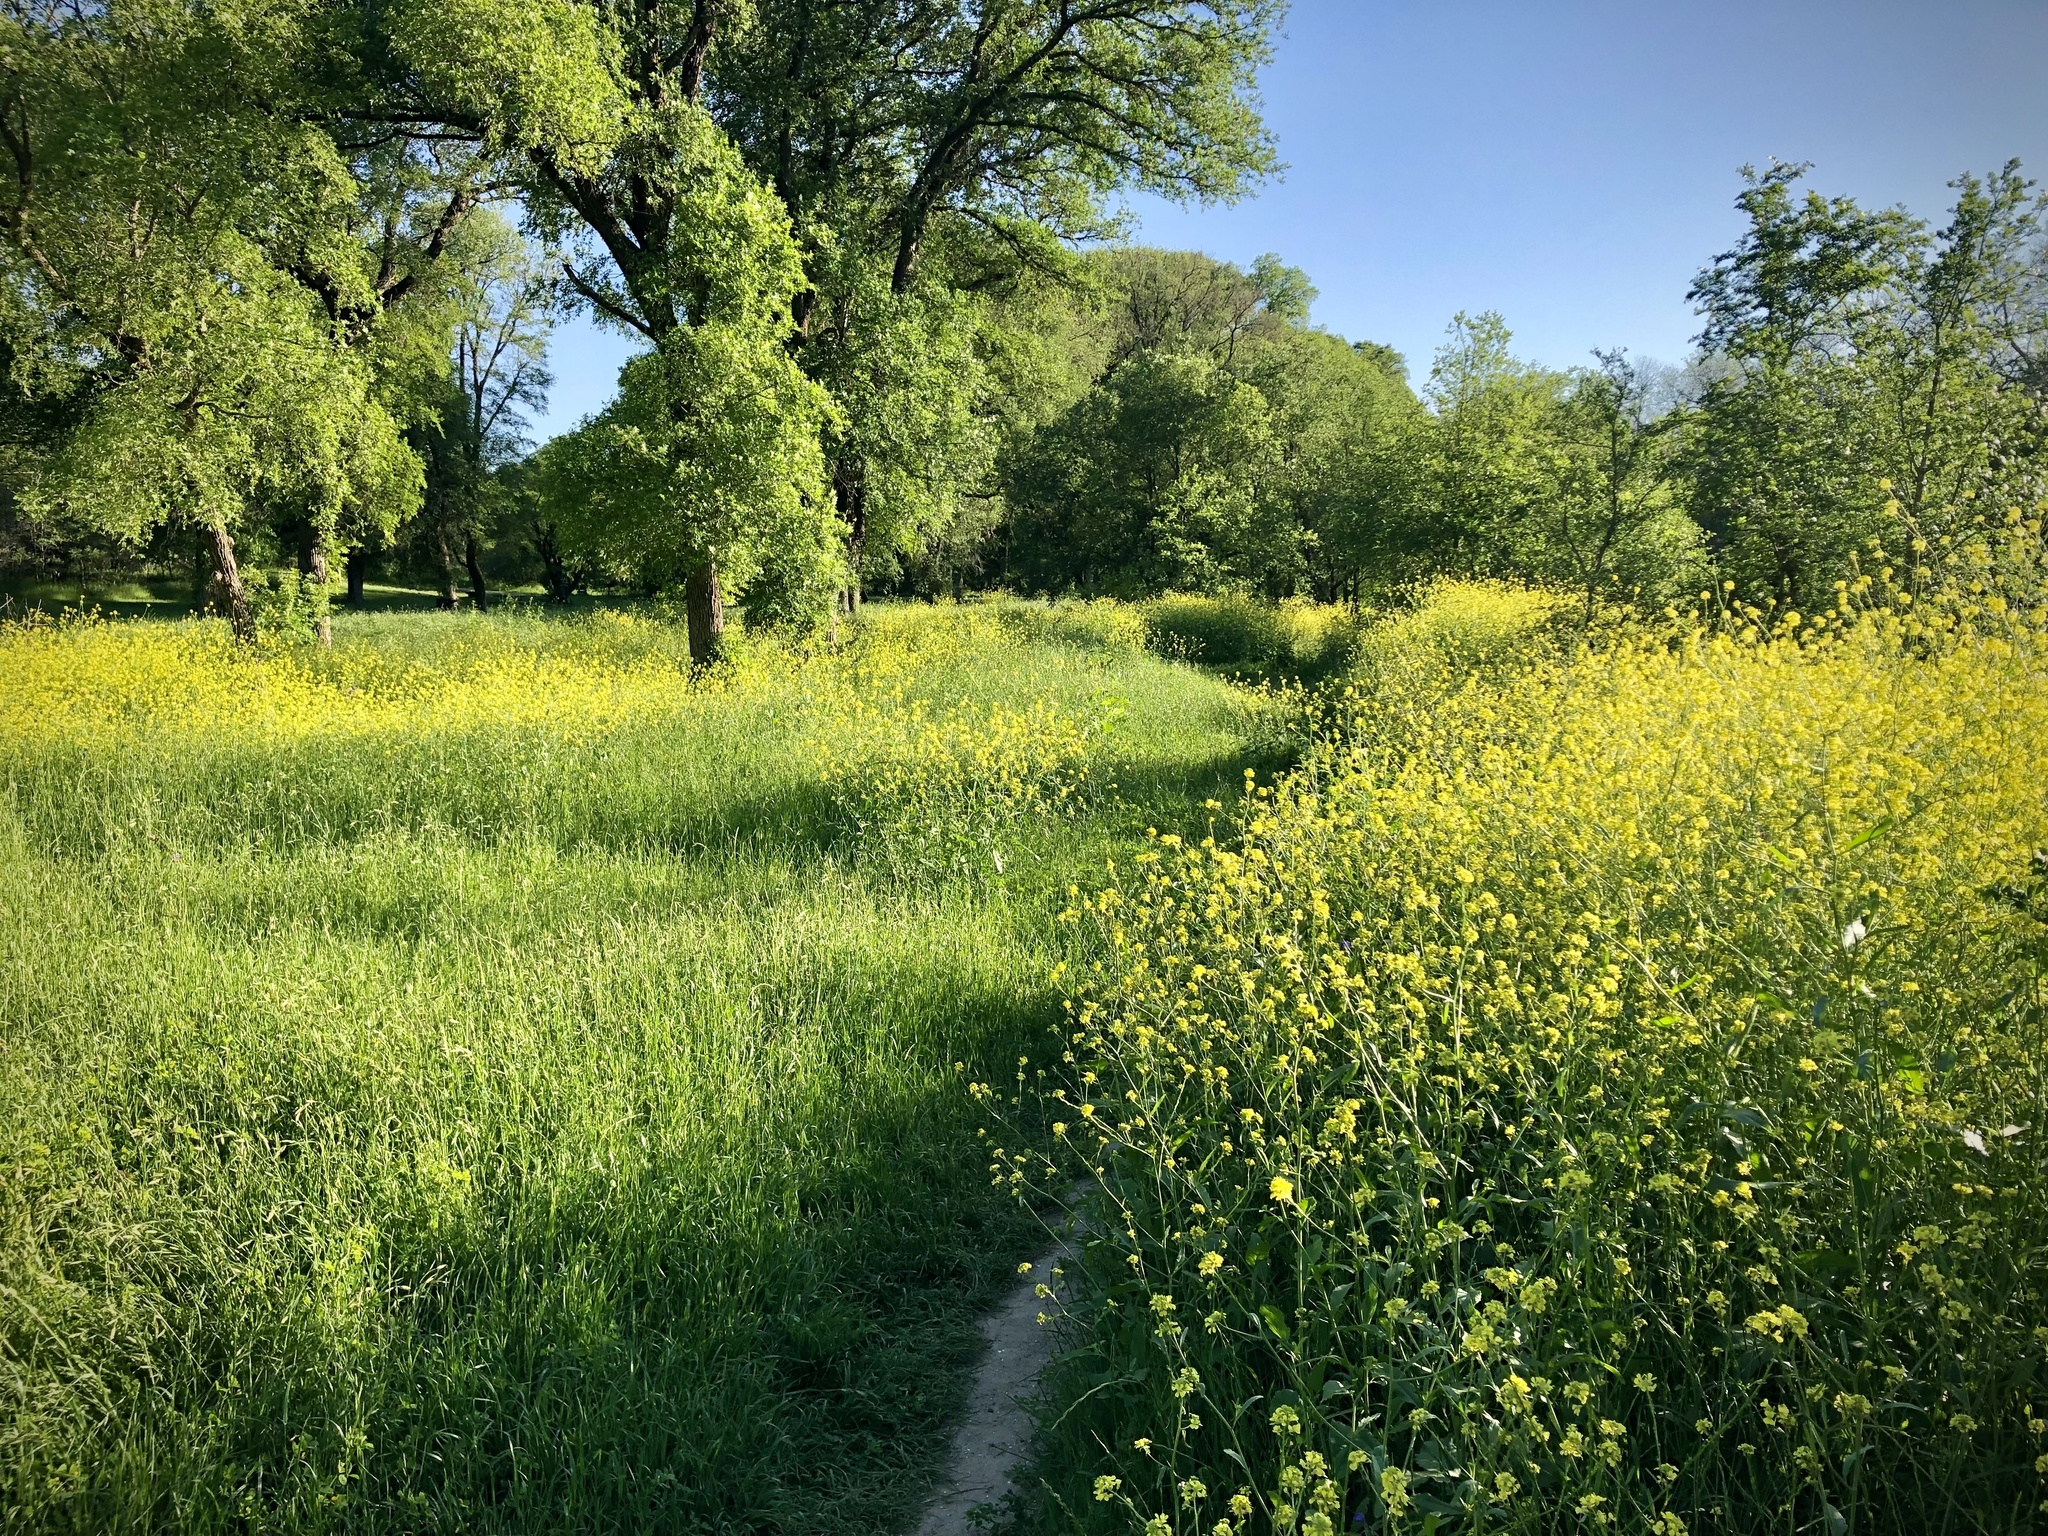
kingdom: Plantae
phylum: Tracheophyta
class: Magnoliopsida
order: Brassicales
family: Brassicaceae
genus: Rapistrum
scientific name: Rapistrum rugosum
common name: Annual bastardcabbage
